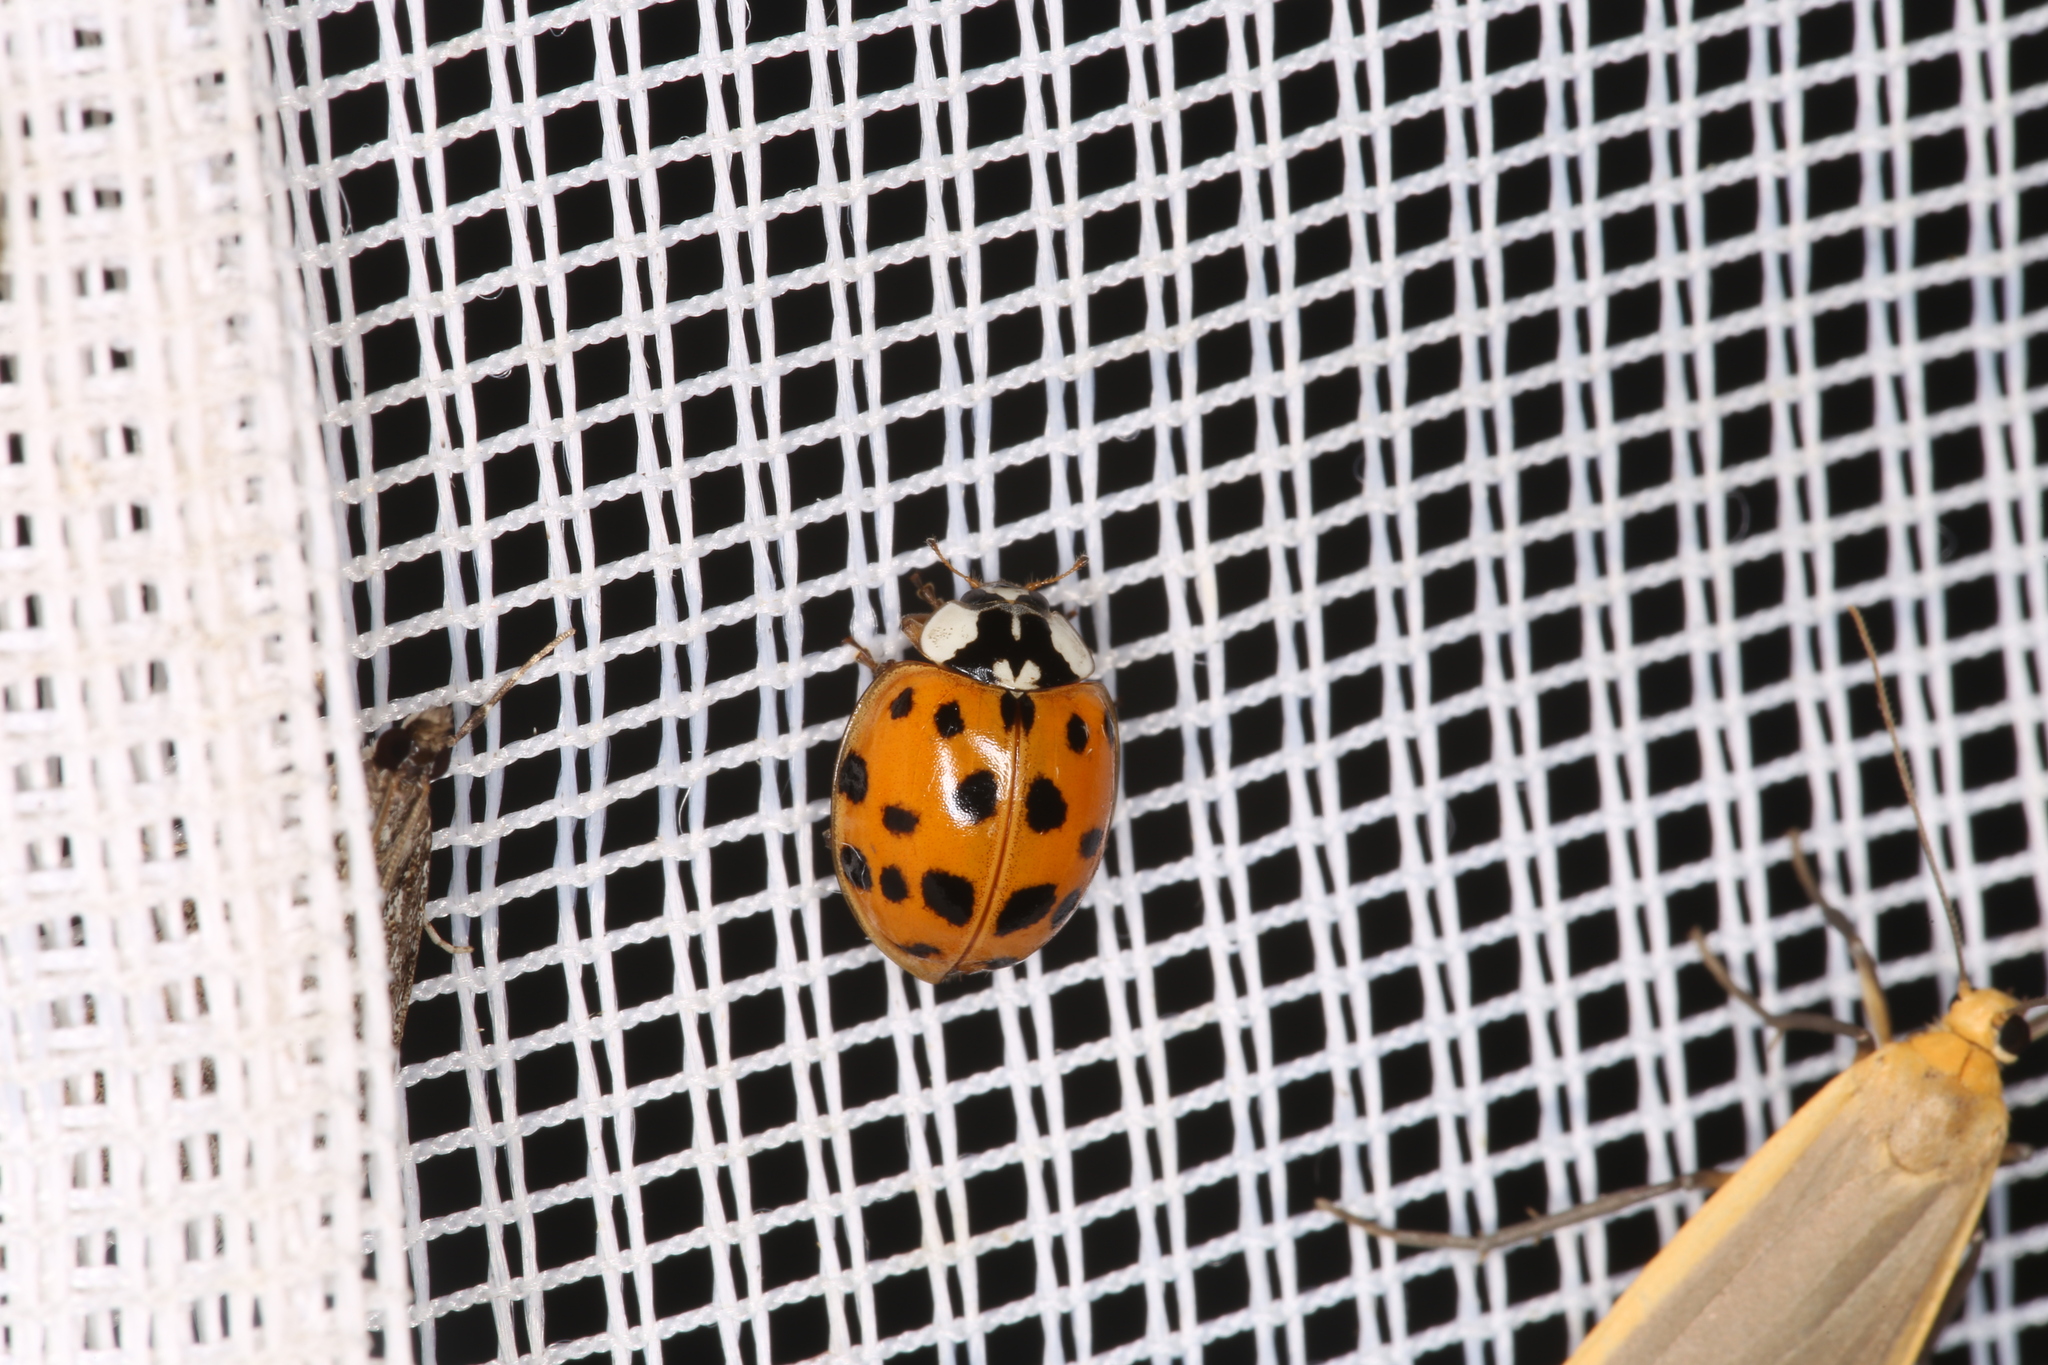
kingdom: Animalia
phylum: Arthropoda
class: Insecta
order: Coleoptera
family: Coccinellidae
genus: Harmonia
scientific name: Harmonia axyridis
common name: Harlequin ladybird
